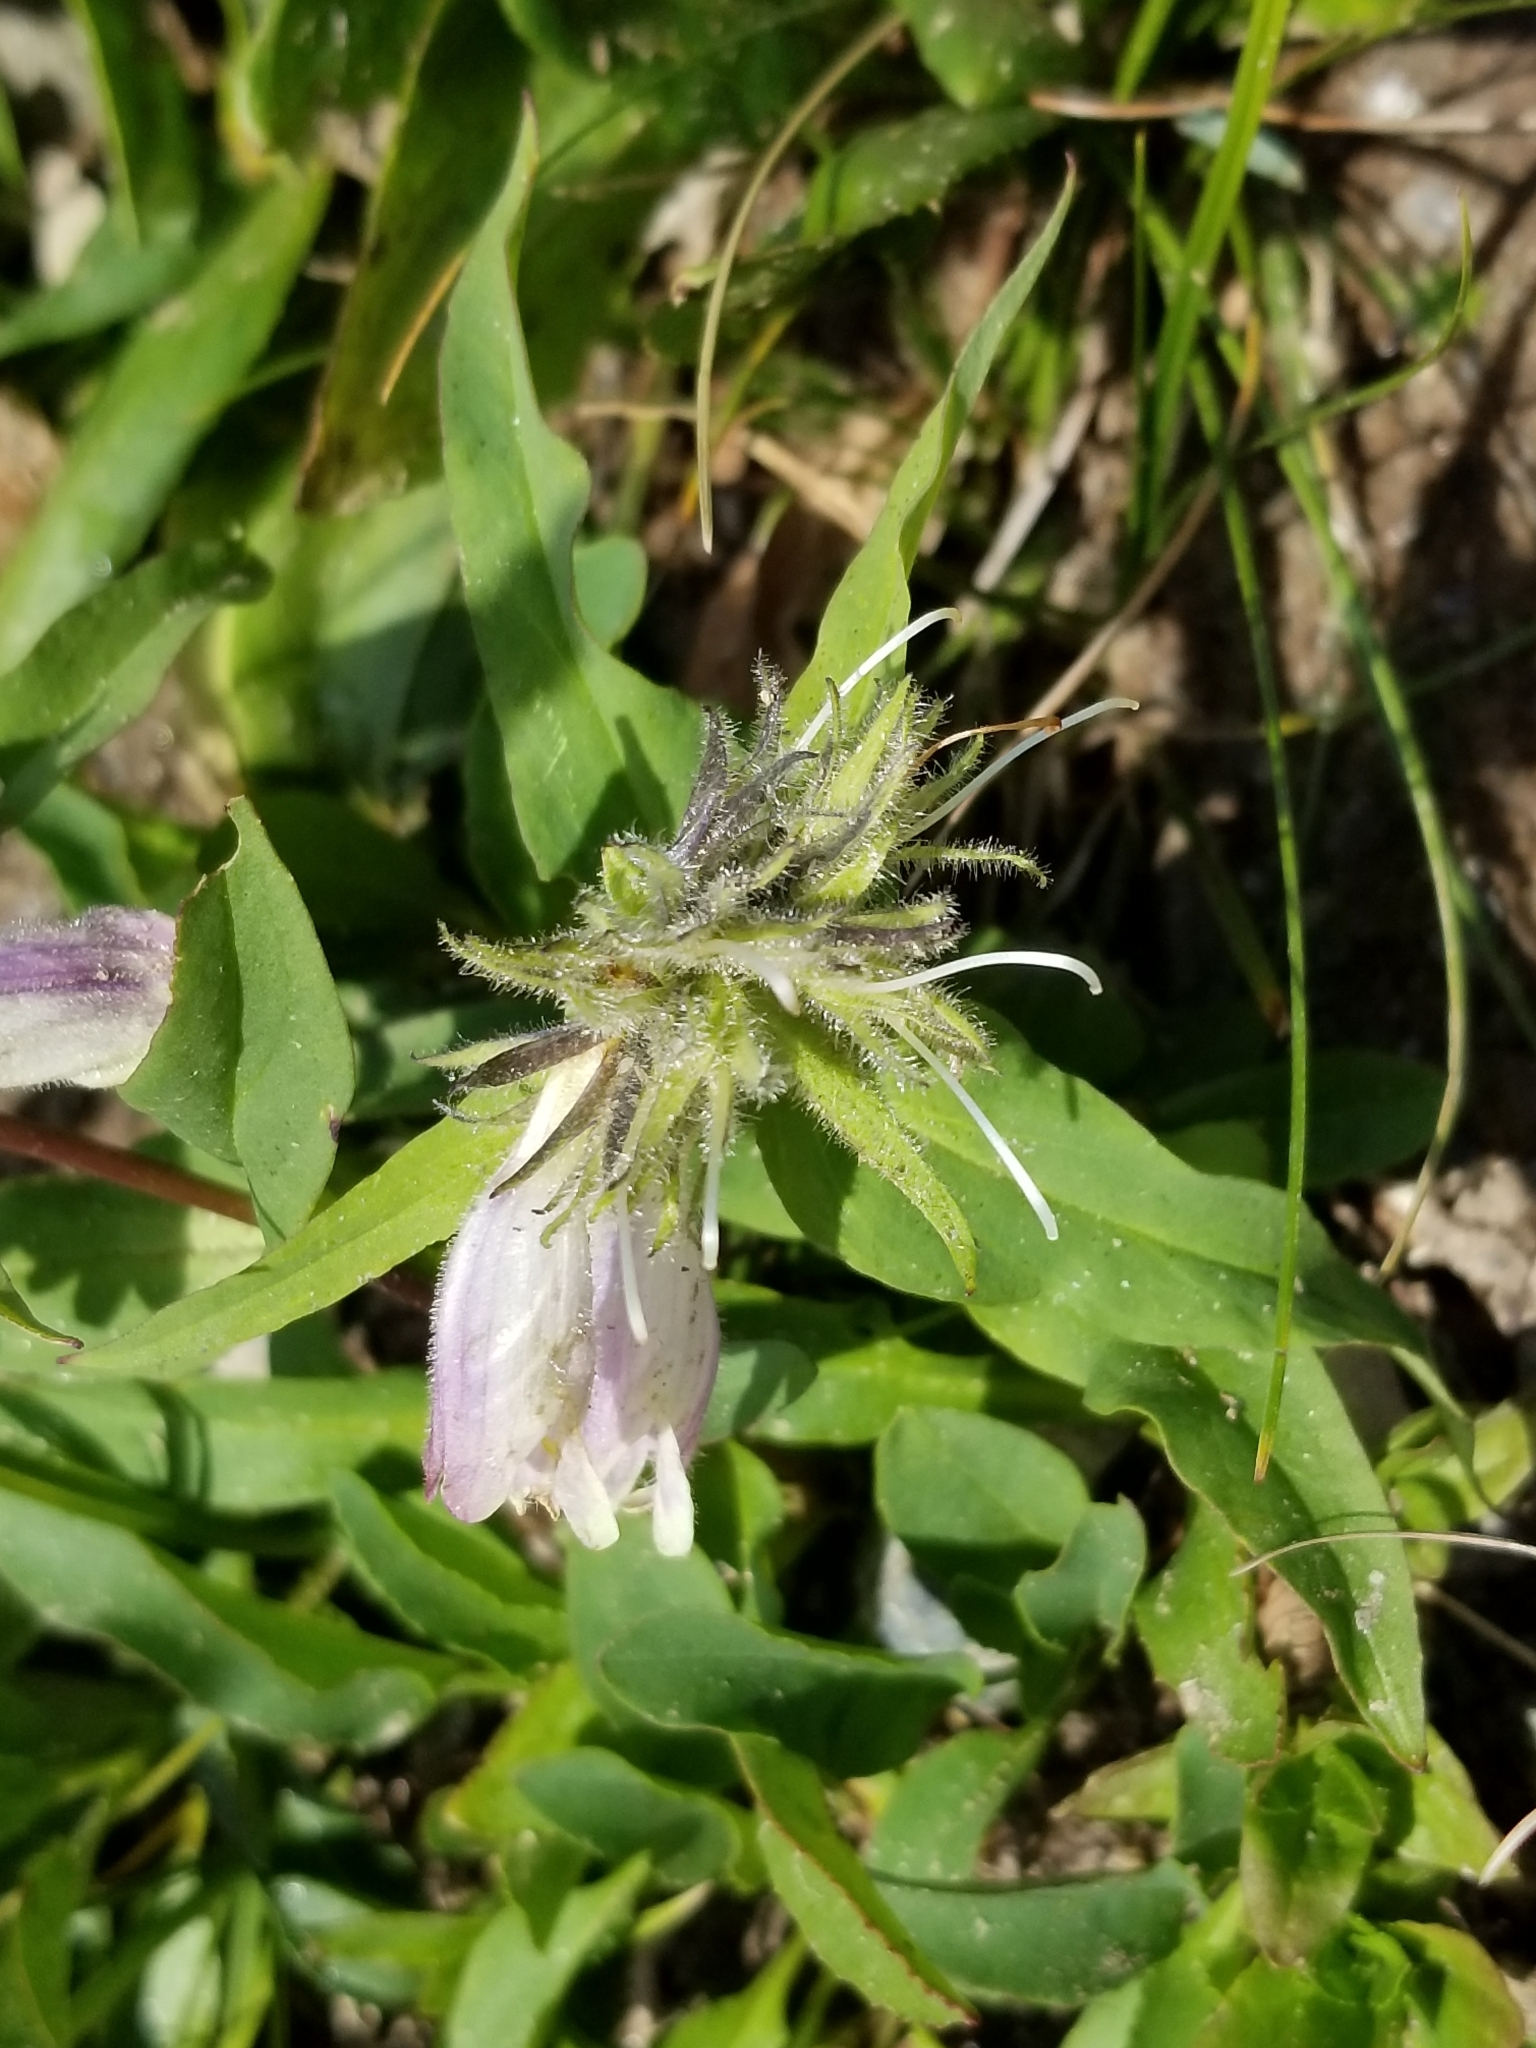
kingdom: Plantae
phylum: Tracheophyta
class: Magnoliopsida
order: Lamiales
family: Plantaginaceae
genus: Penstemon
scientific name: Penstemon whippleanus
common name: Whipple's penstemon
